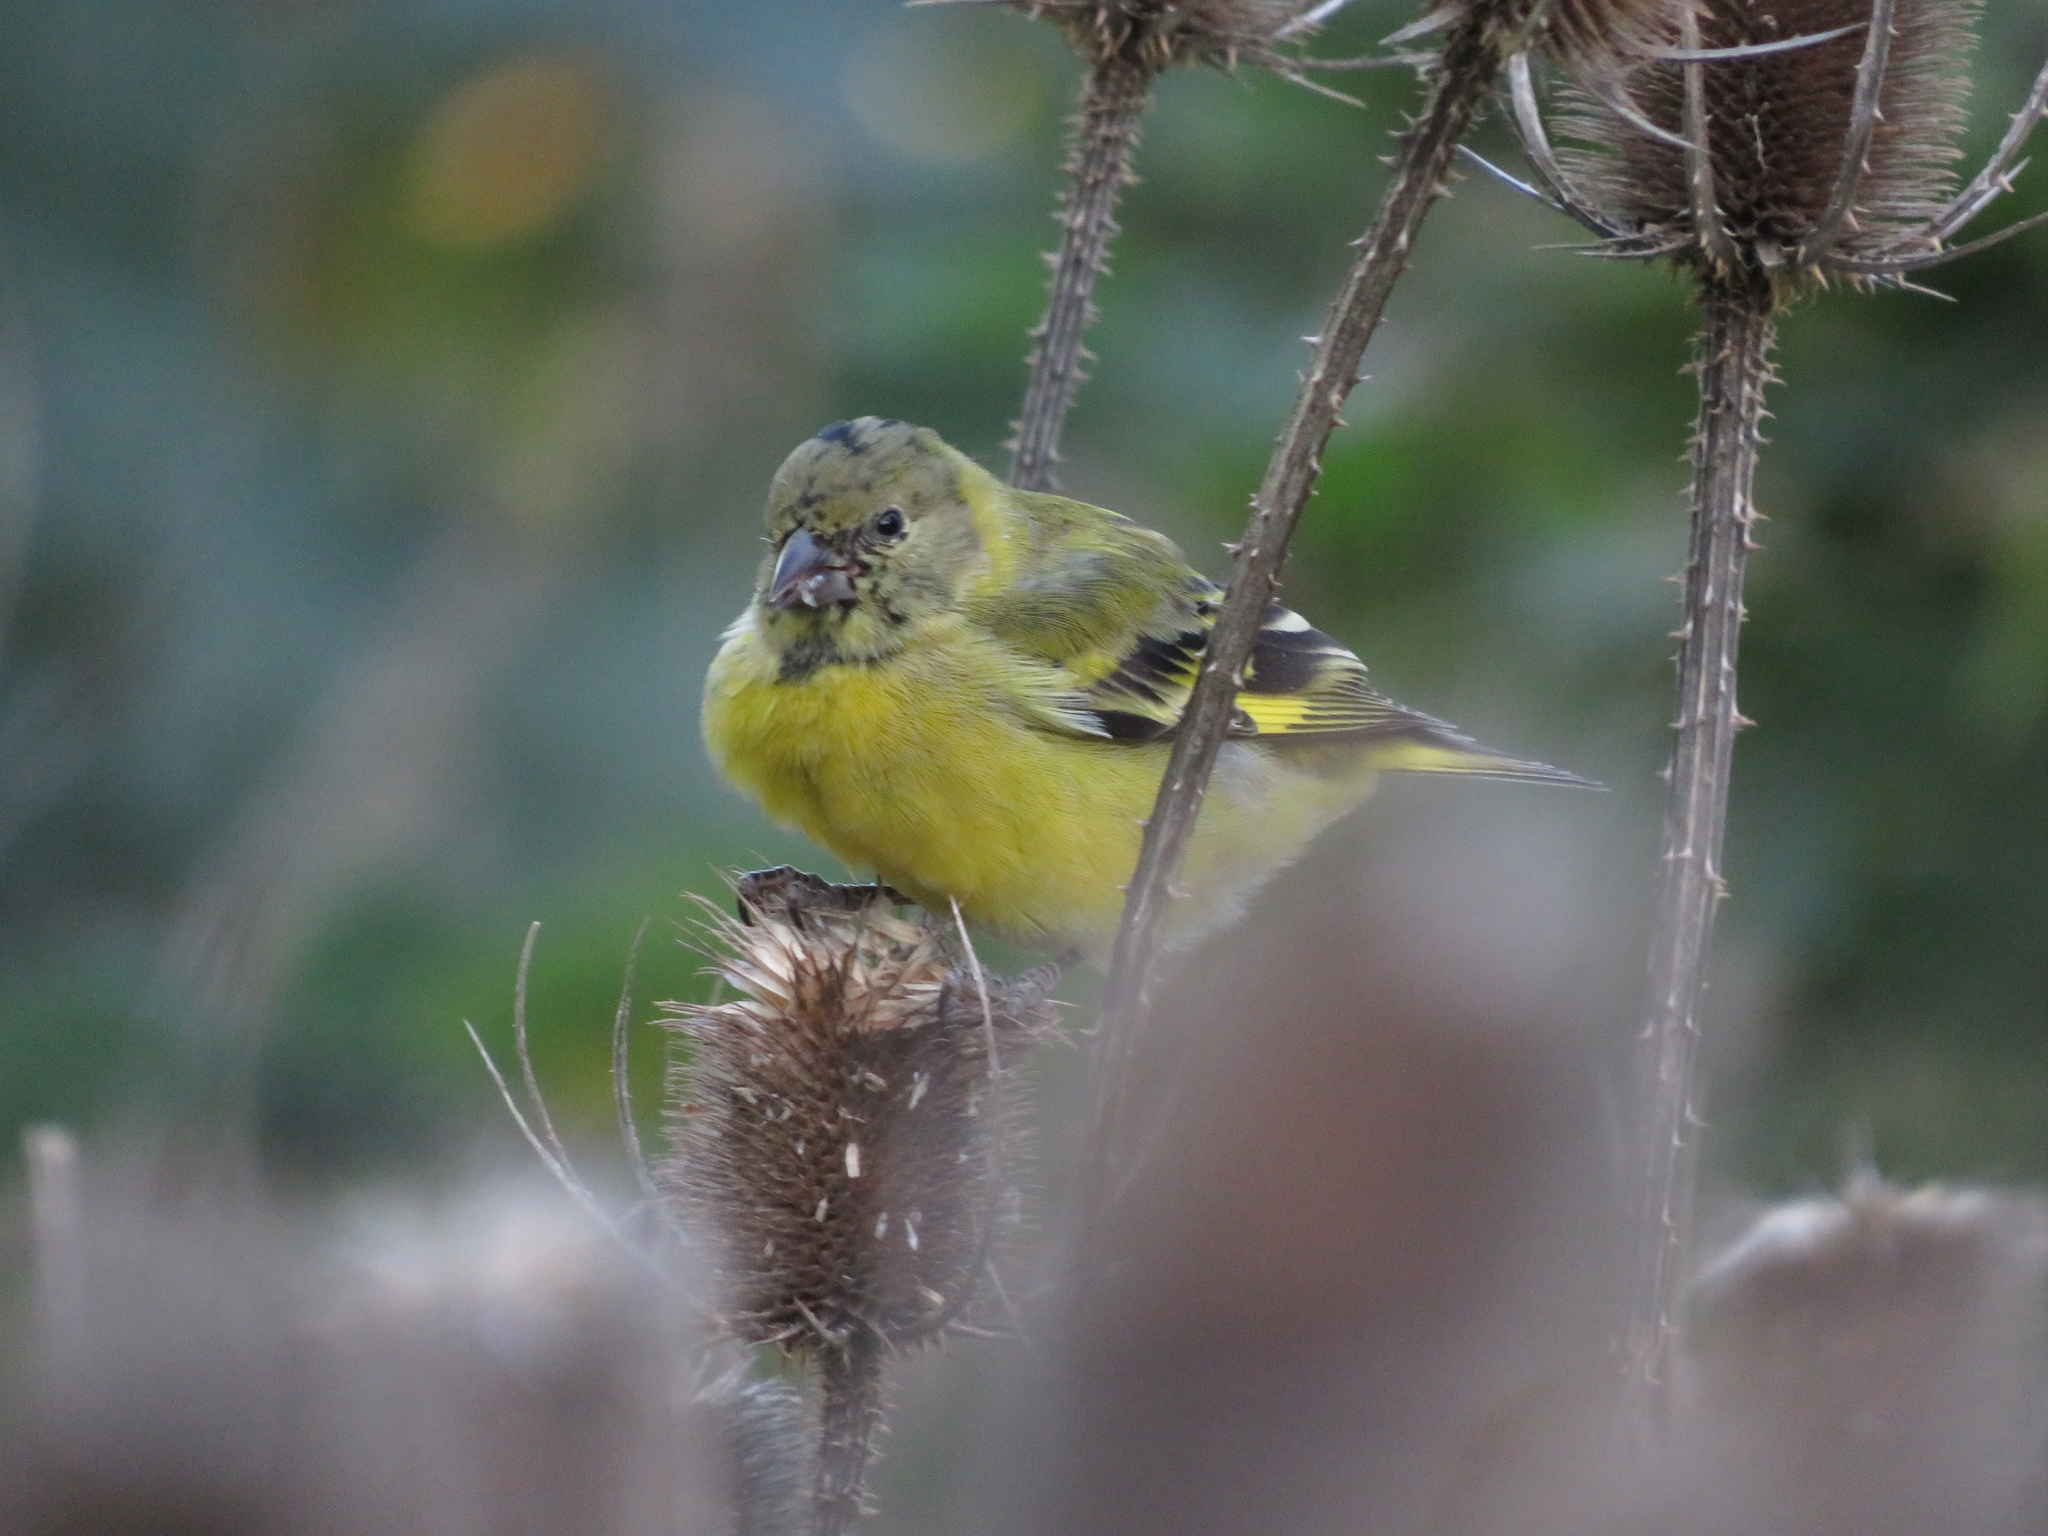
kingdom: Animalia
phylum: Chordata
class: Aves
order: Passeriformes
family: Fringillidae
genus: Spinus
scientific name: Spinus magellanicus
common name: Hooded siskin
